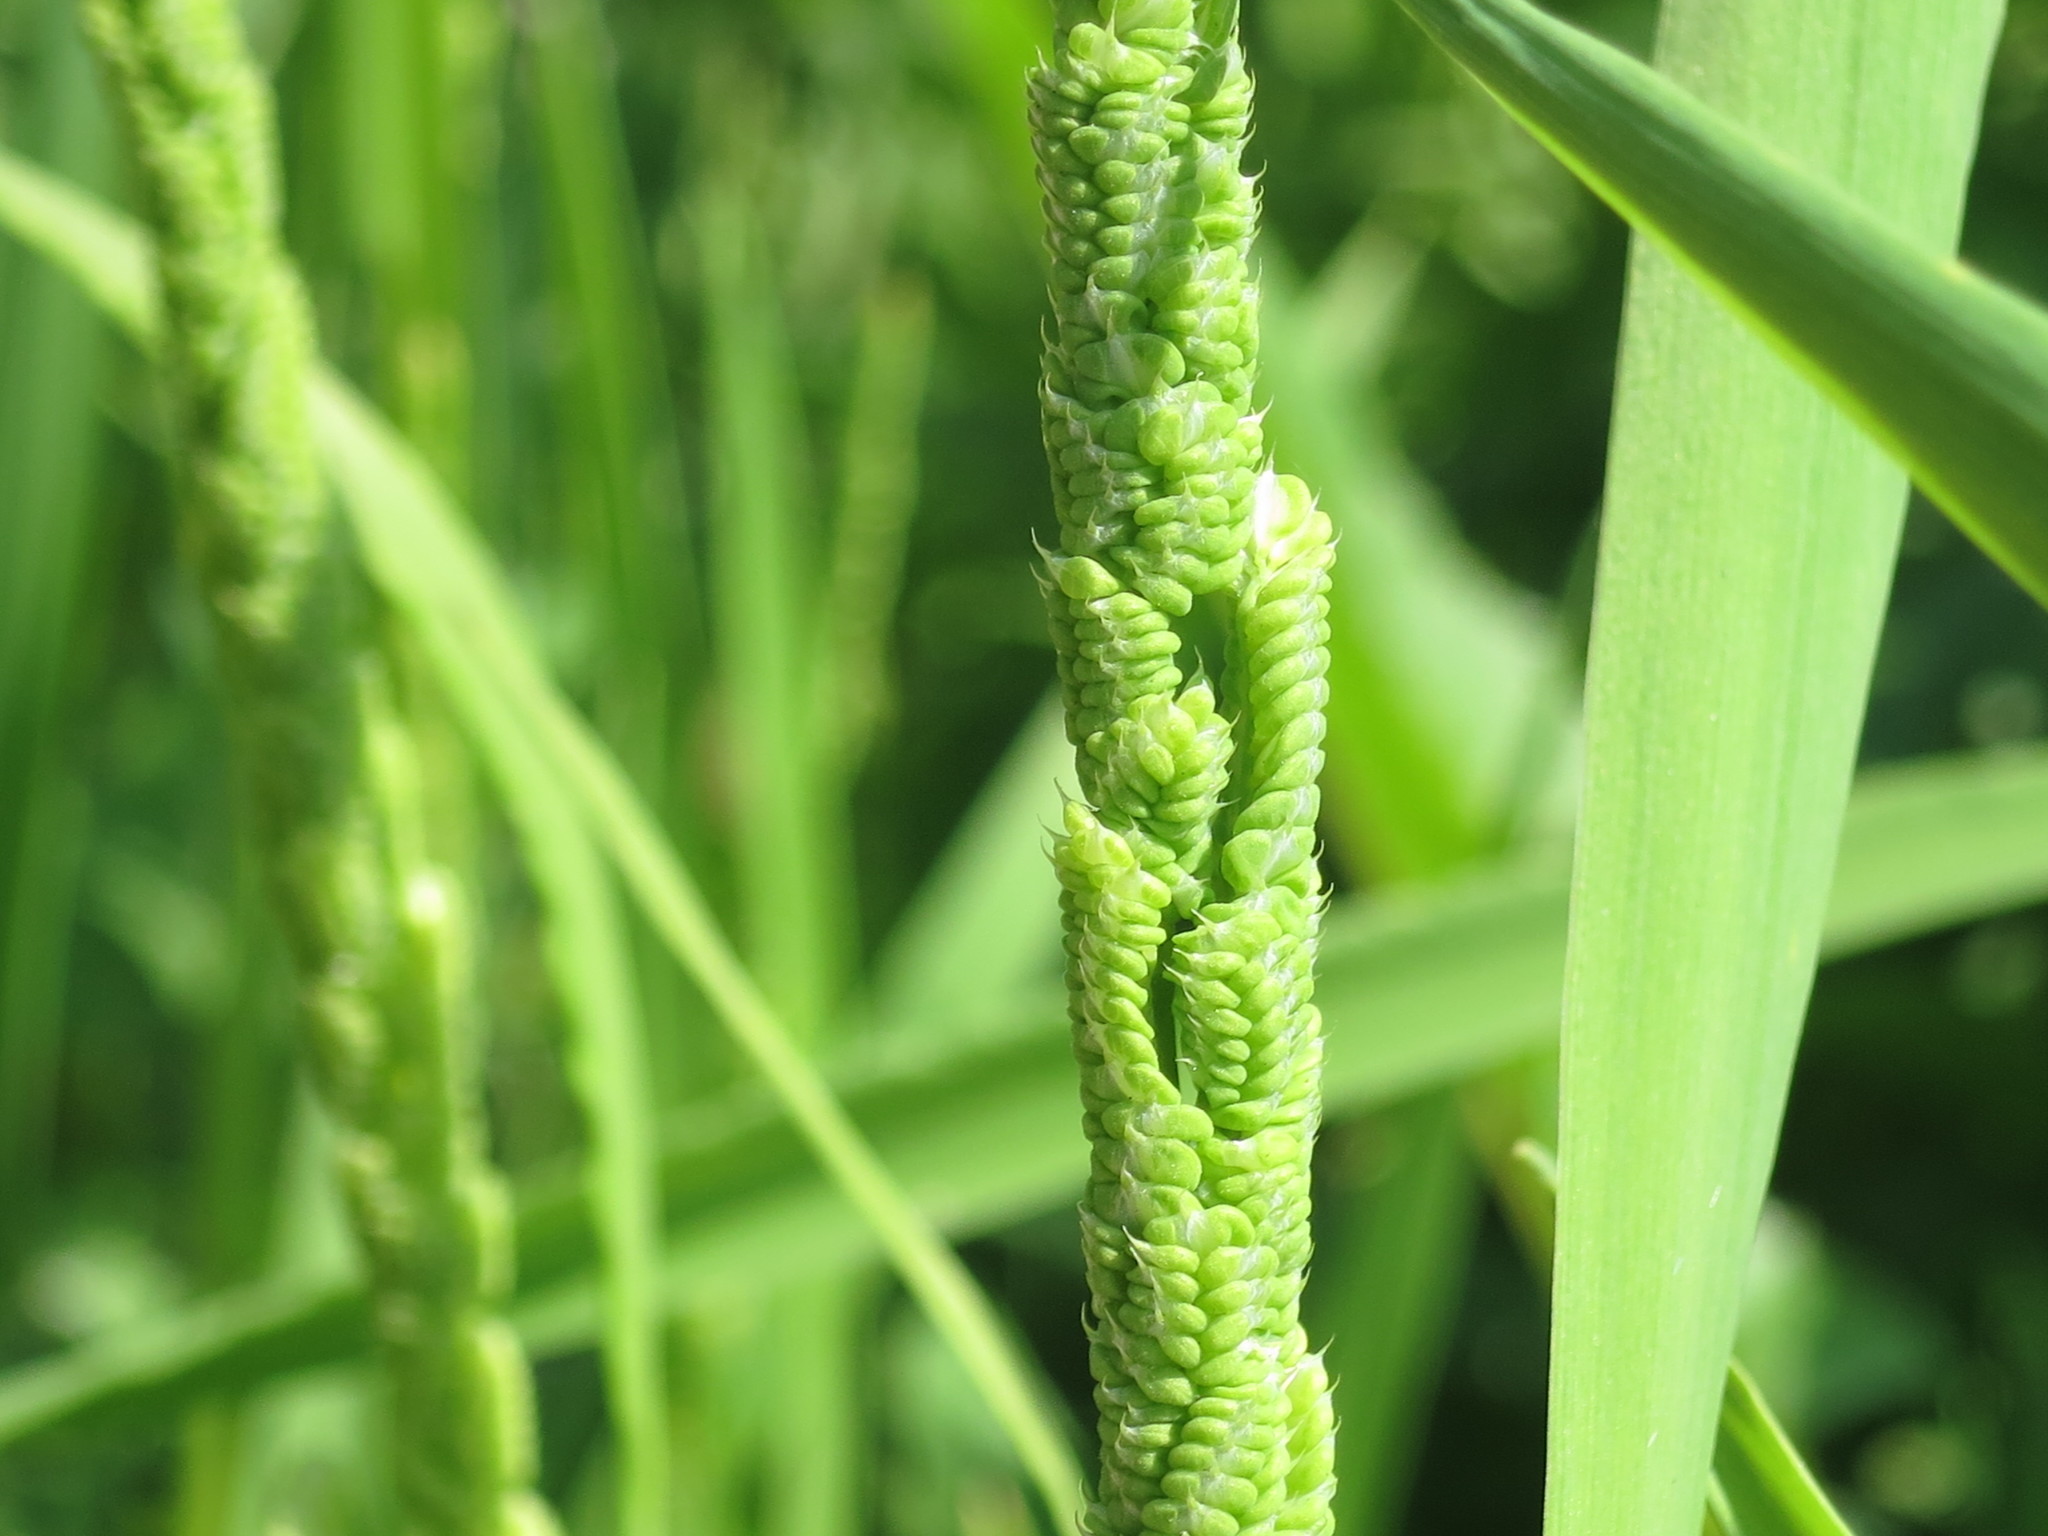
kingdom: Plantae
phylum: Tracheophyta
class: Liliopsida
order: Poales
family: Poaceae
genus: Beckmannia
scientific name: Beckmannia syzigachne
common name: American slough-grass
